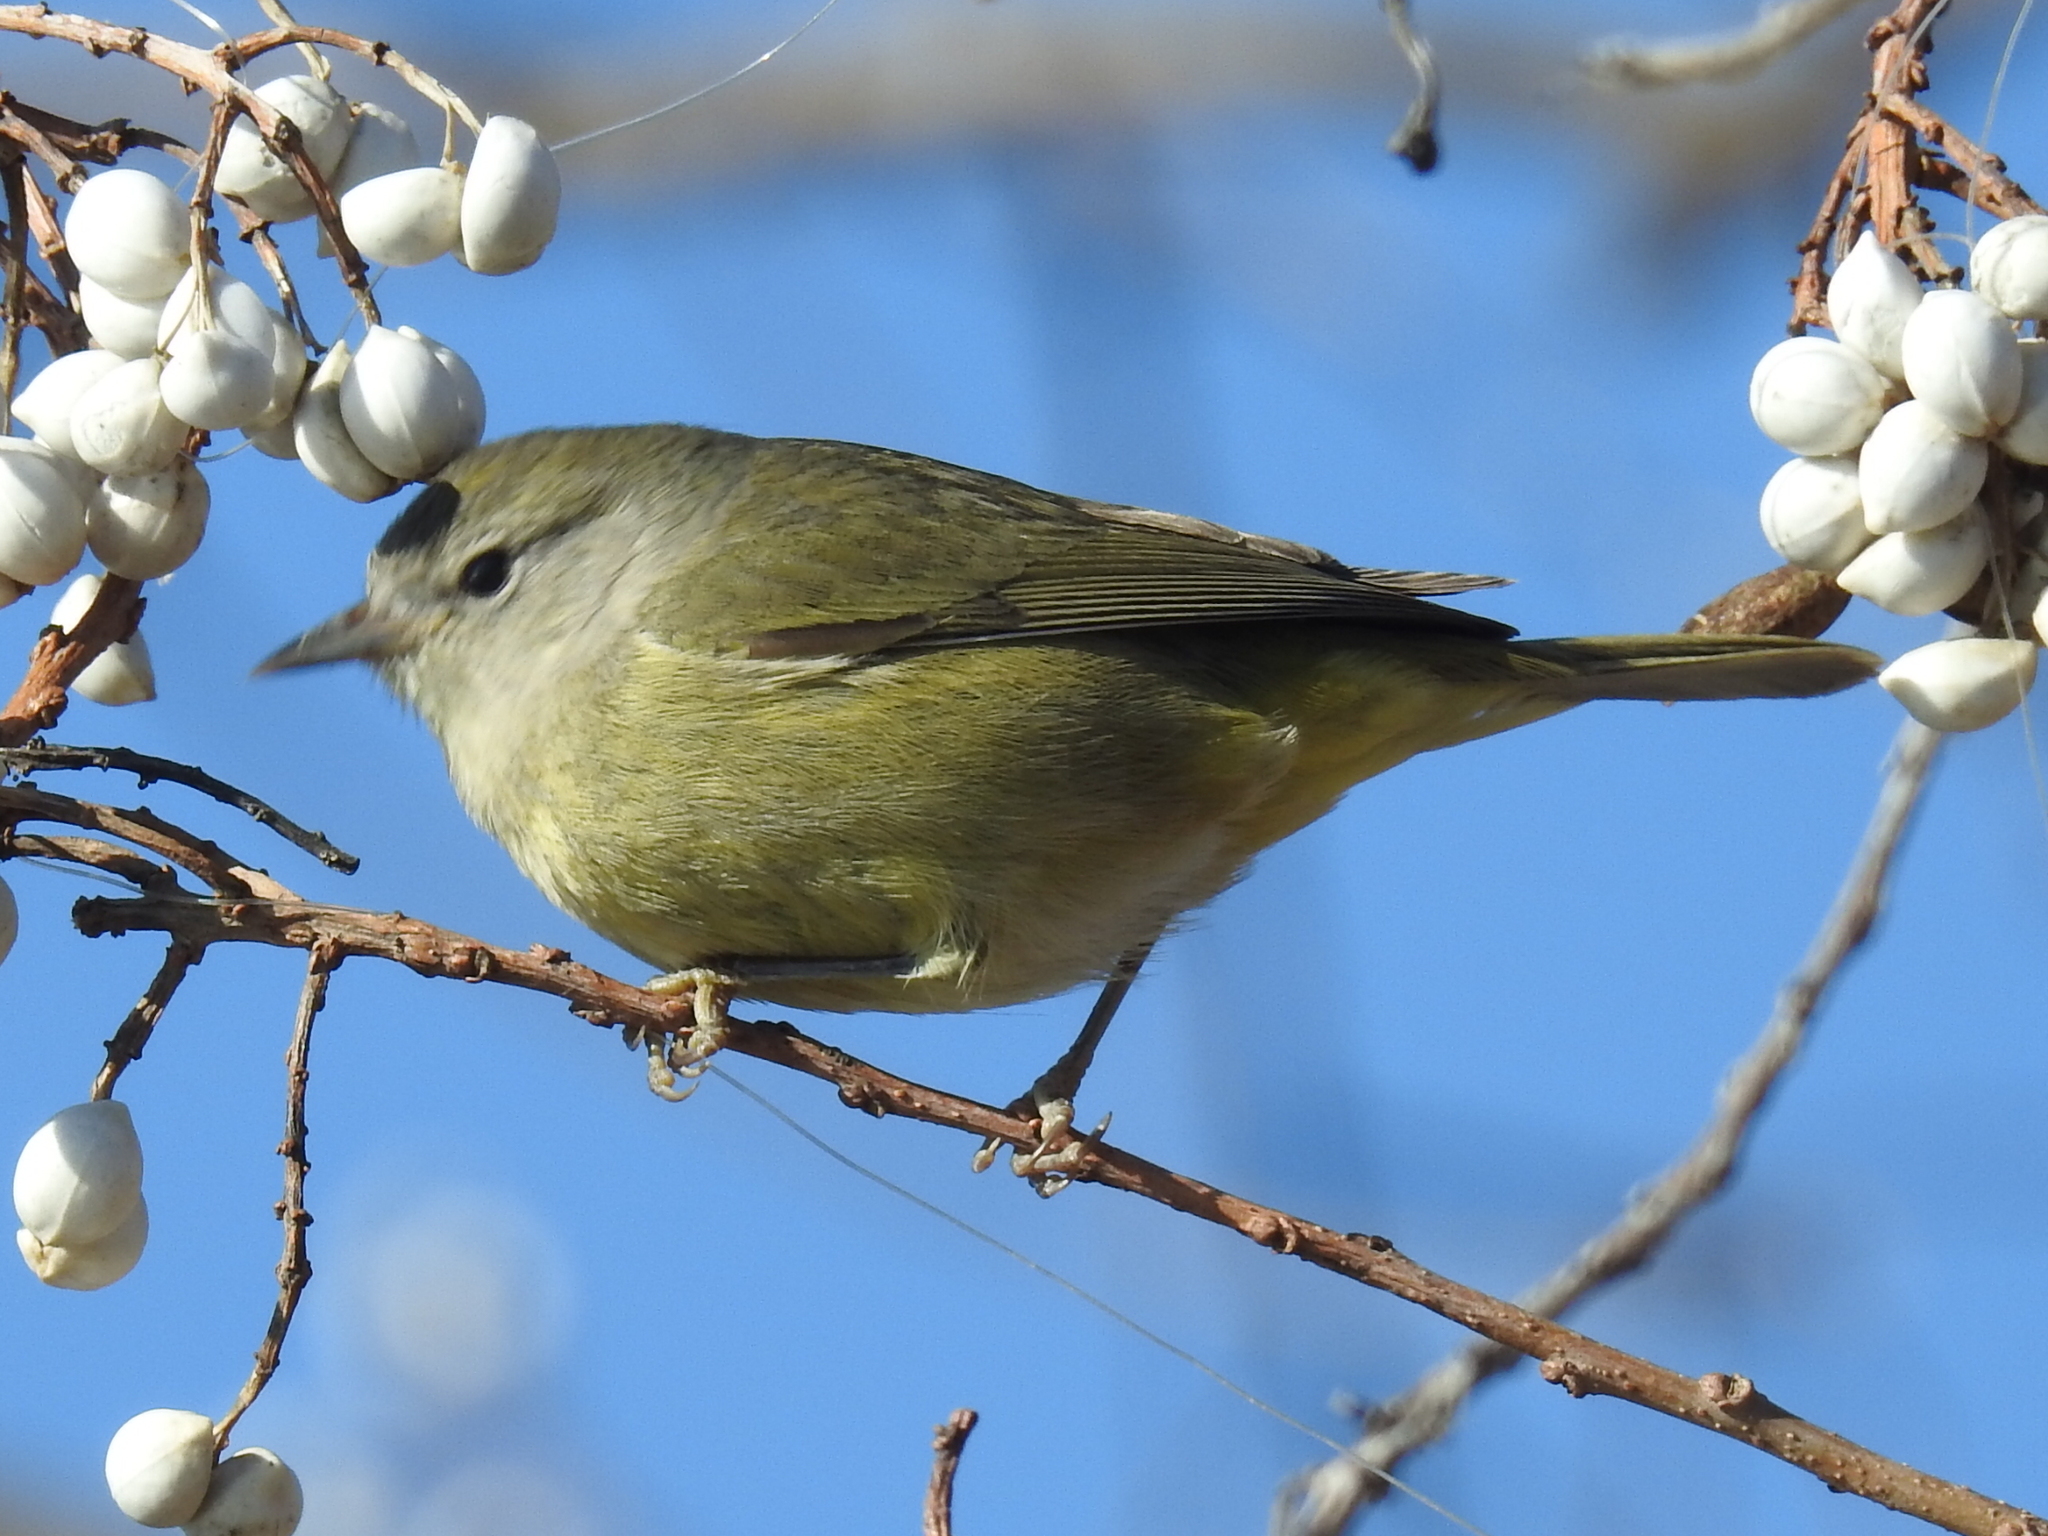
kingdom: Animalia
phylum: Chordata
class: Aves
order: Passeriformes
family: Parulidae
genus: Leiothlypis
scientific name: Leiothlypis celata
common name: Orange-crowned warbler
